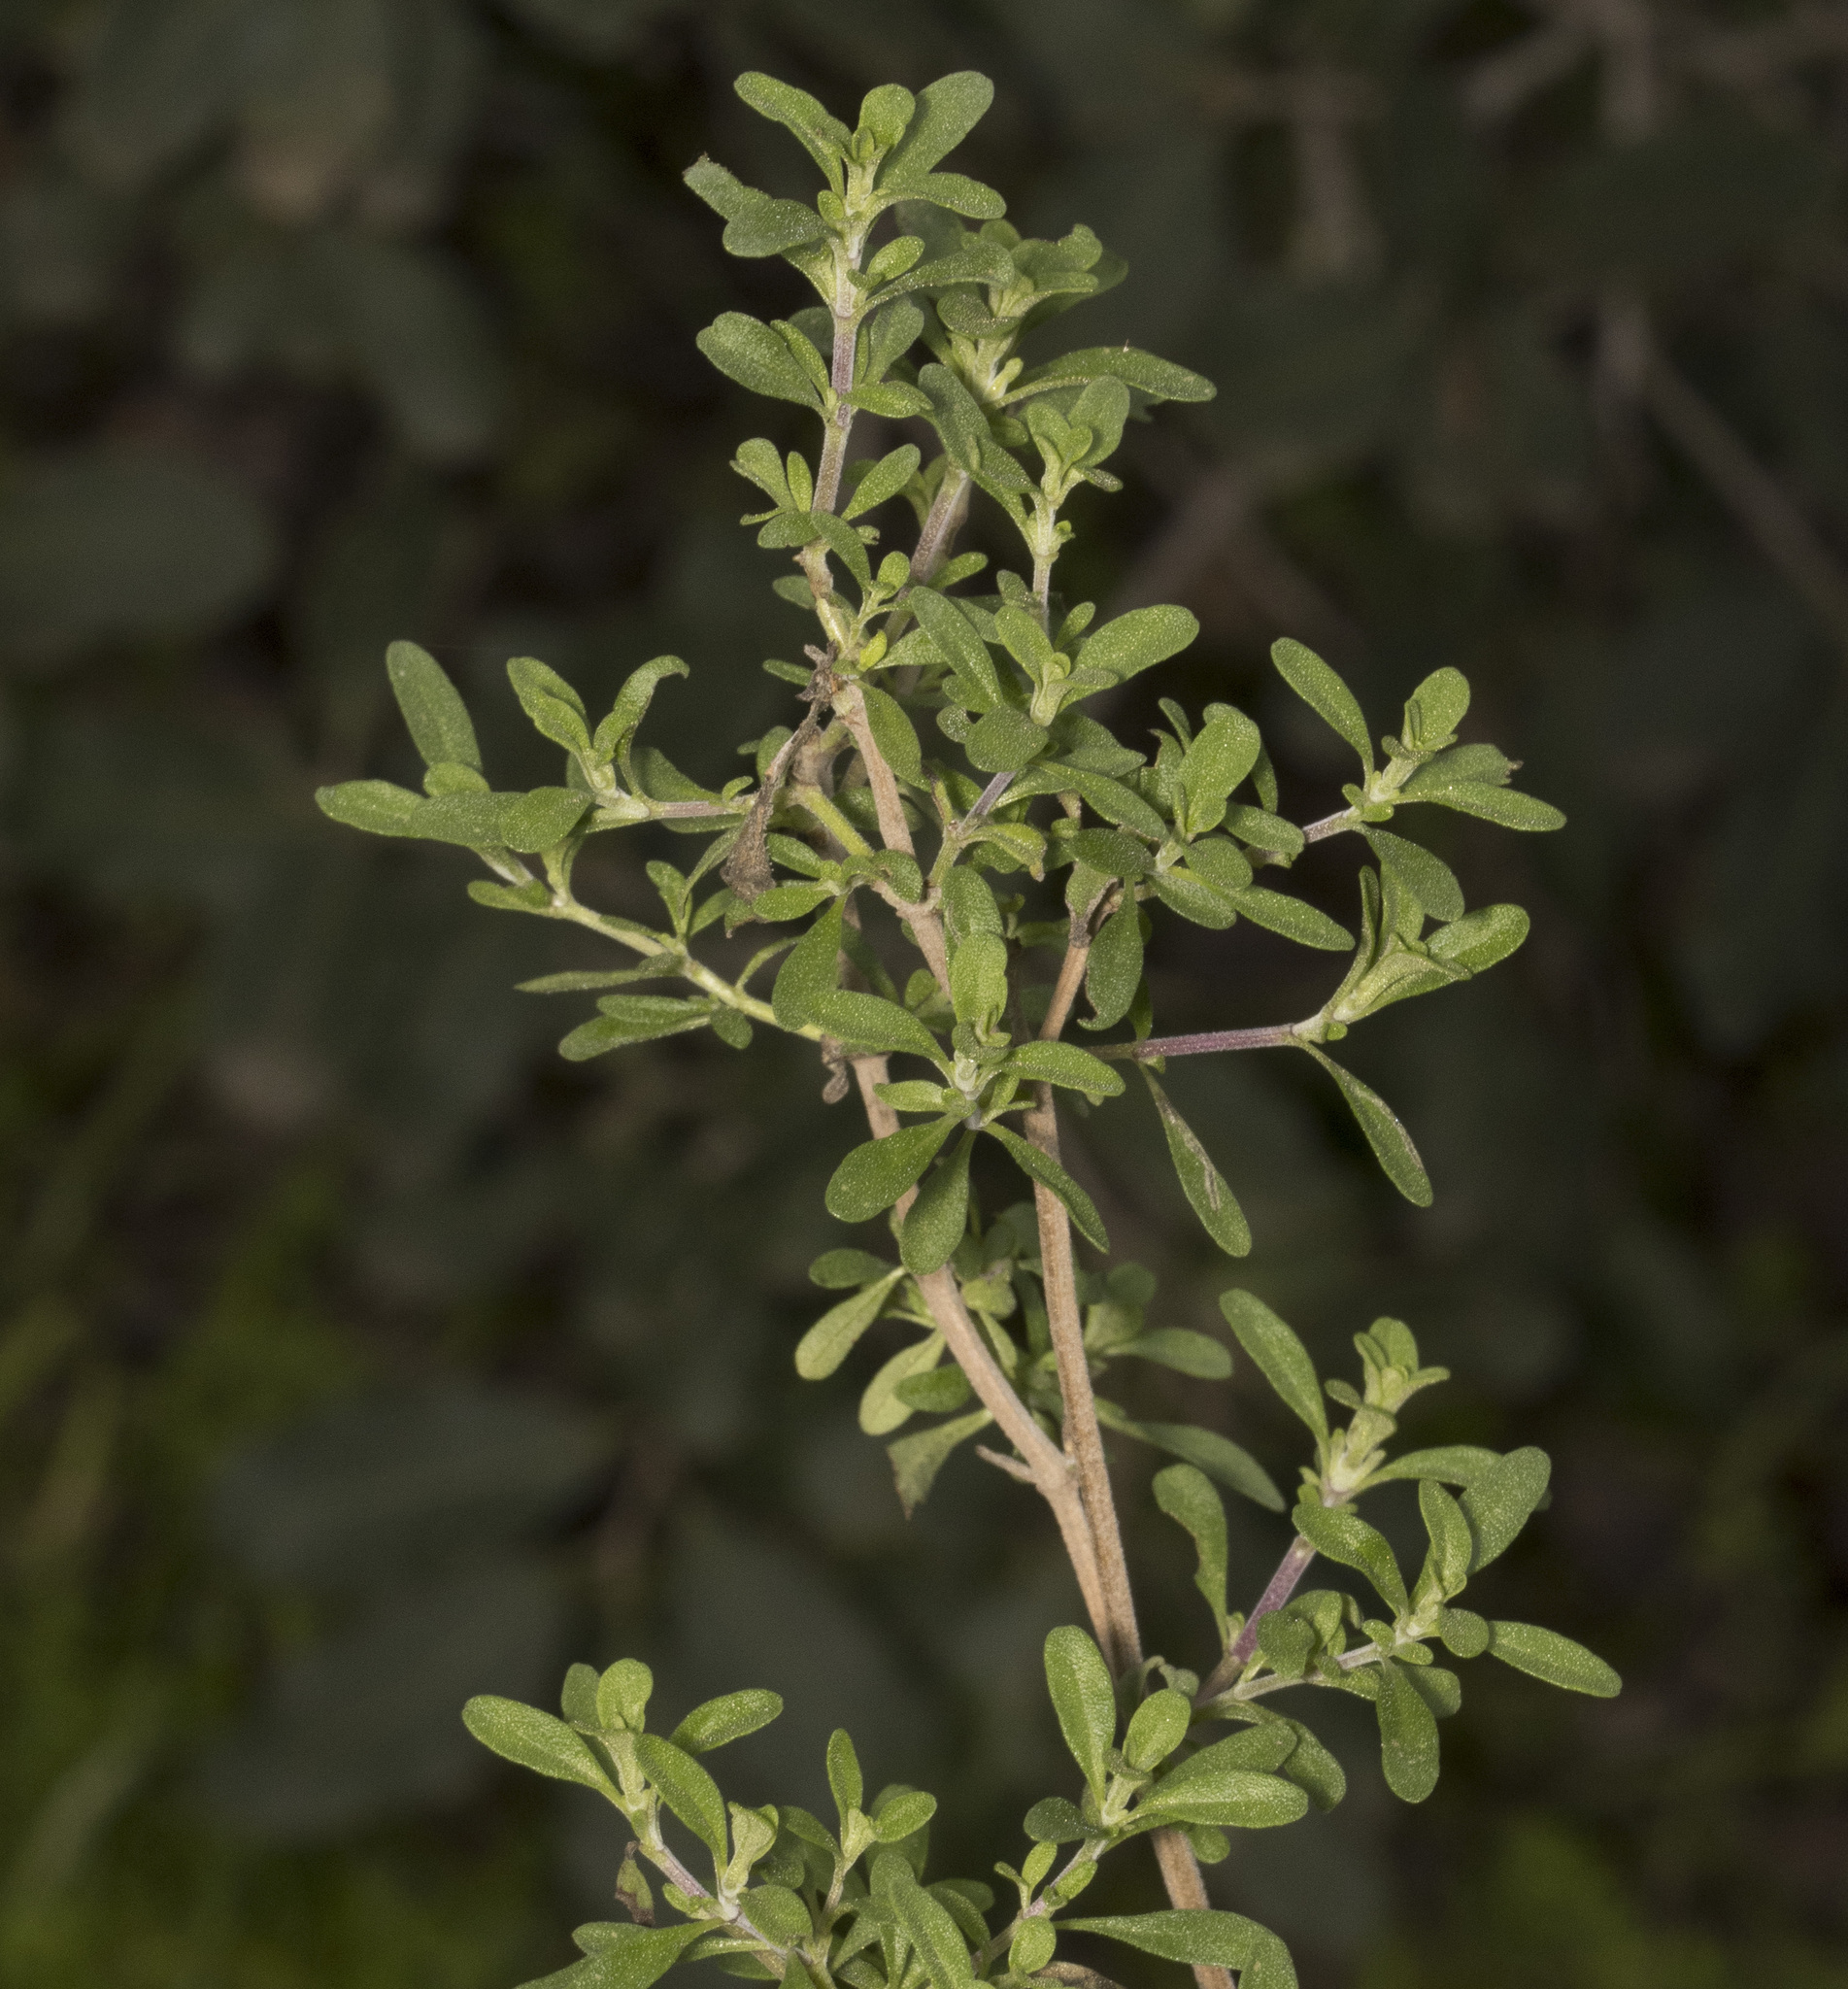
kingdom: Plantae
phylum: Tracheophyta
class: Magnoliopsida
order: Lamiales
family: Lamiaceae
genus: Clinopodium
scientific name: Clinopodium chilense
